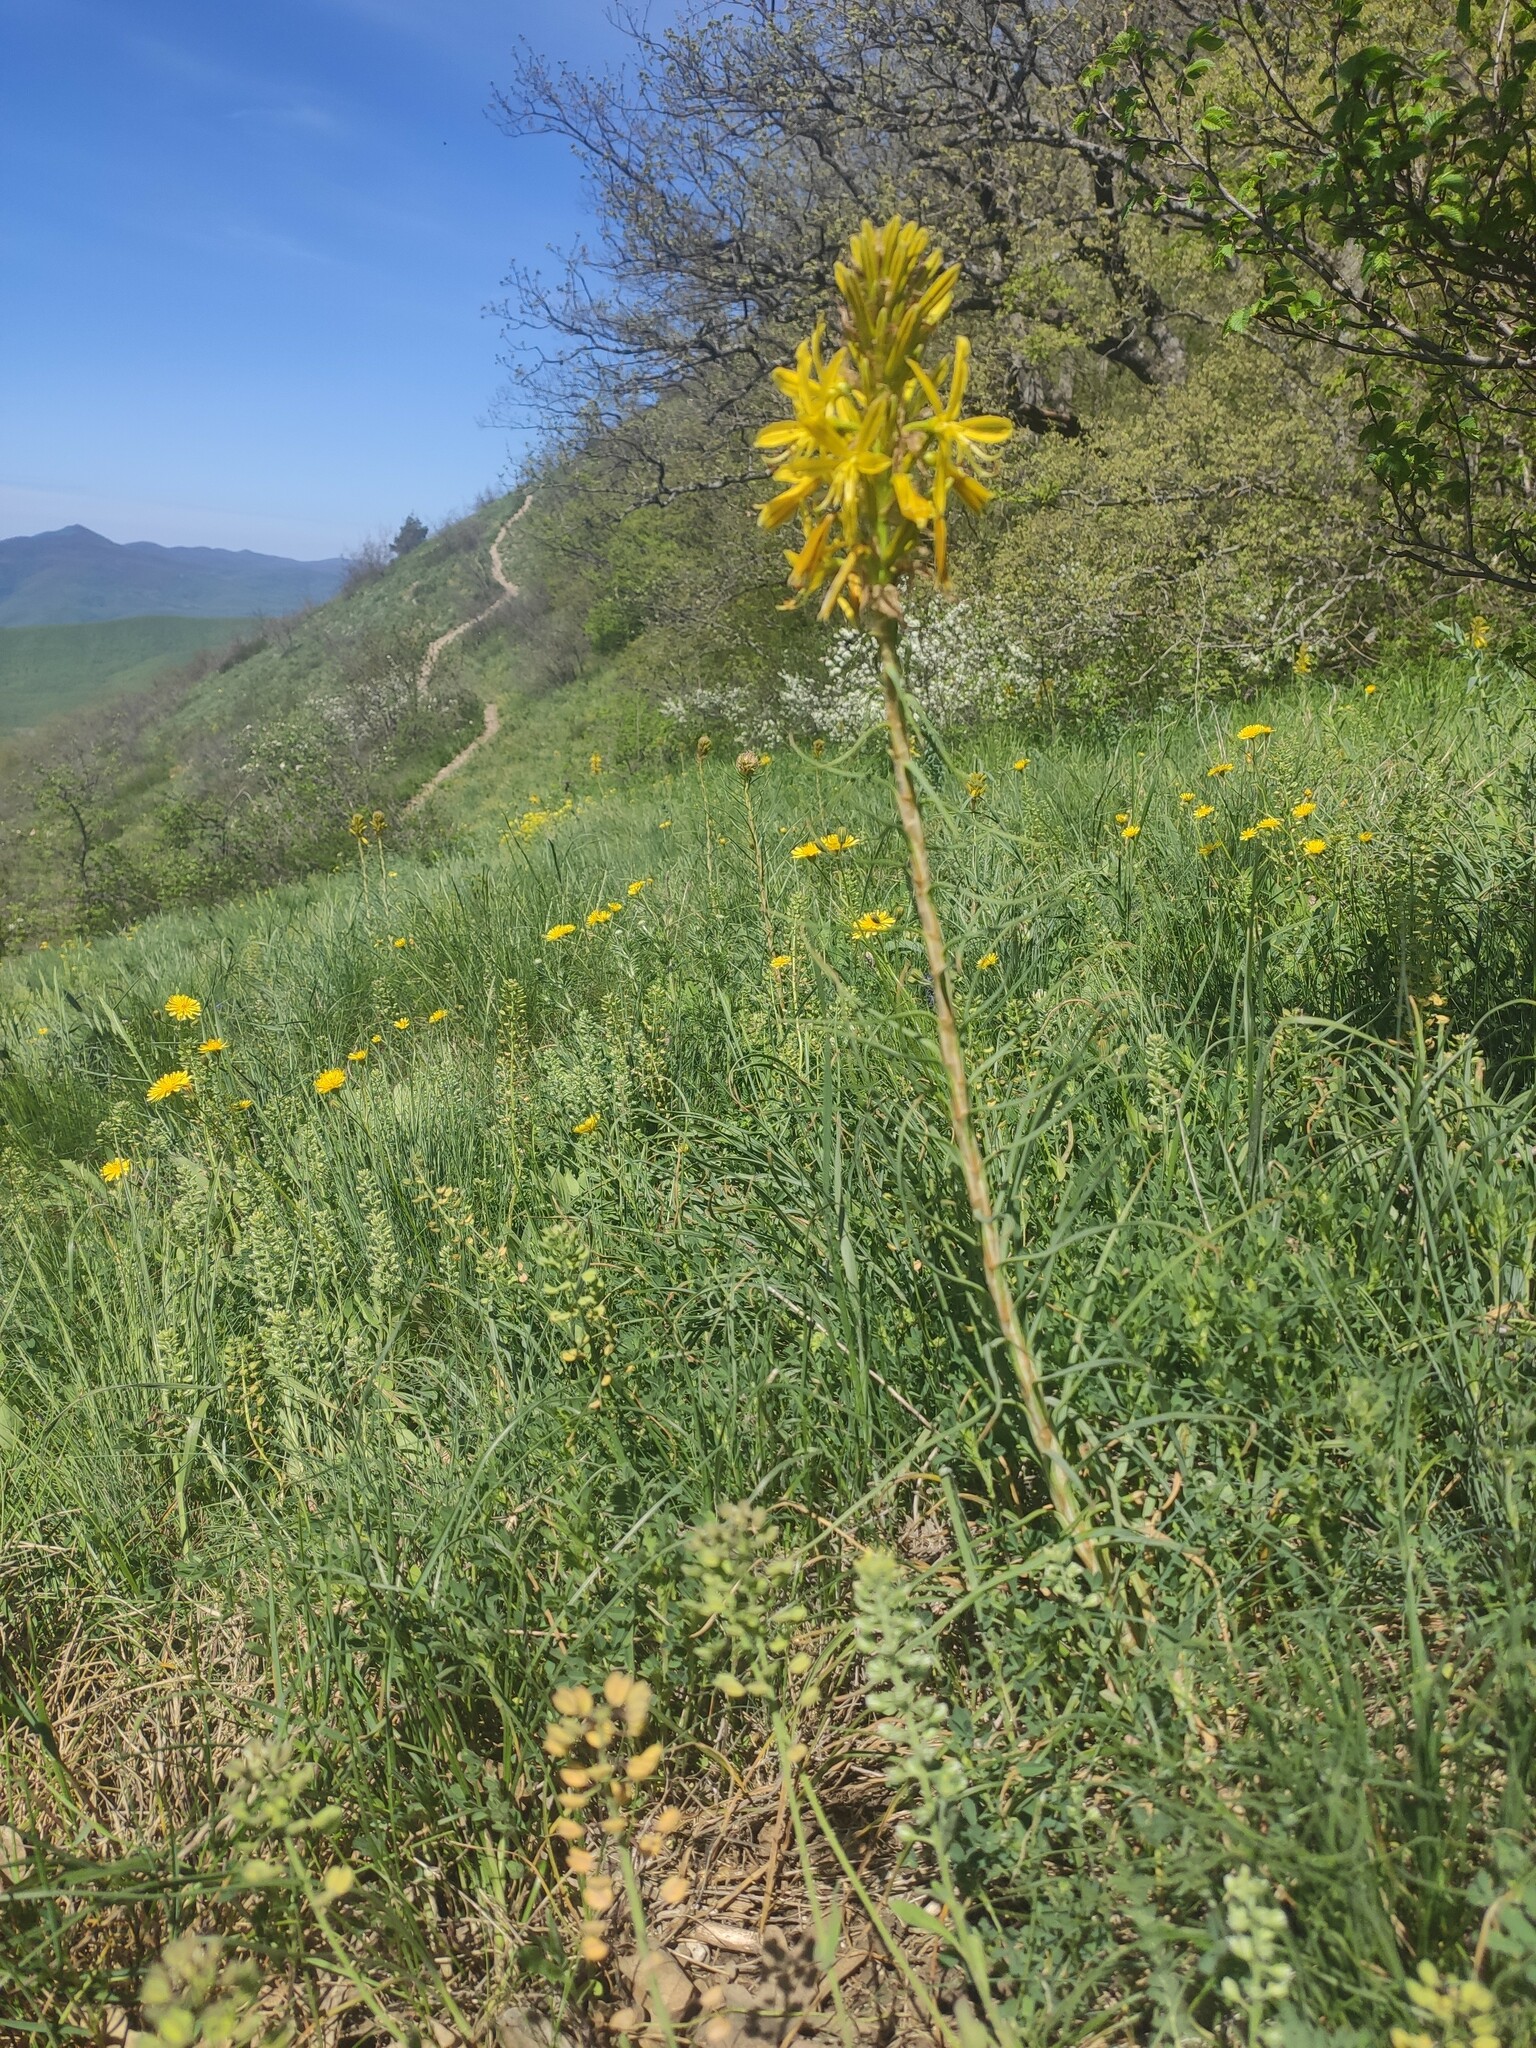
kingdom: Plantae
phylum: Tracheophyta
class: Liliopsida
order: Asparagales
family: Asphodelaceae
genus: Asphodeline
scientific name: Asphodeline lutea
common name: Yellow asphodel
